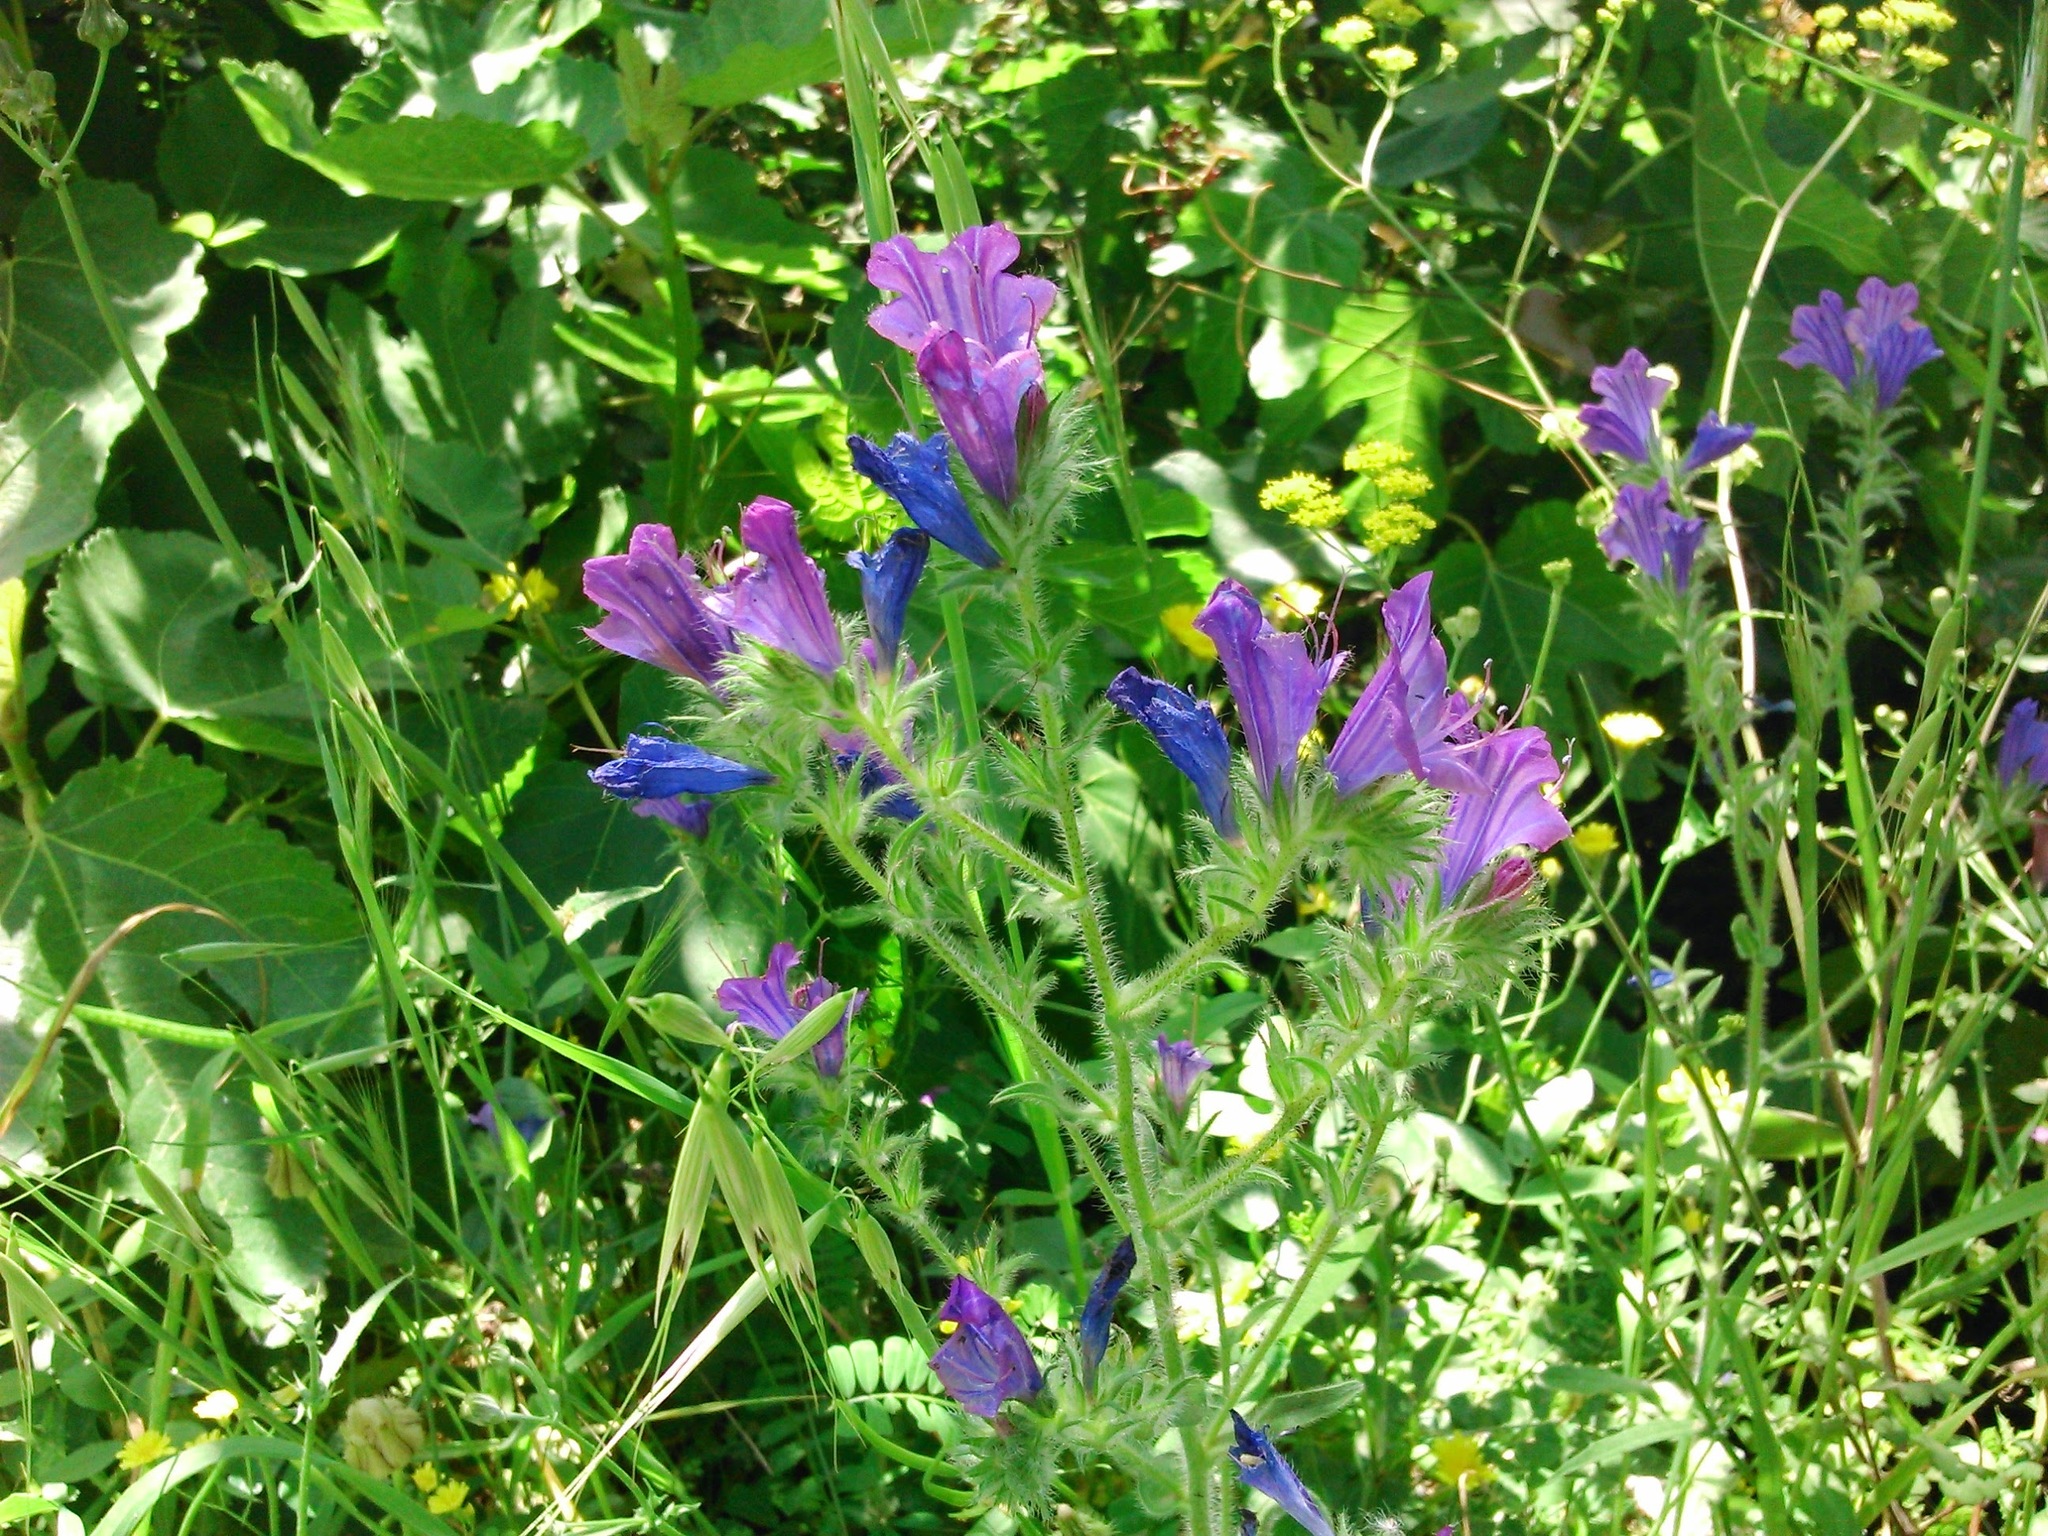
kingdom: Plantae
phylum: Tracheophyta
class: Magnoliopsida
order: Boraginales
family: Boraginaceae
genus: Echium
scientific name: Echium plantagineum
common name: Purple viper's-bugloss
